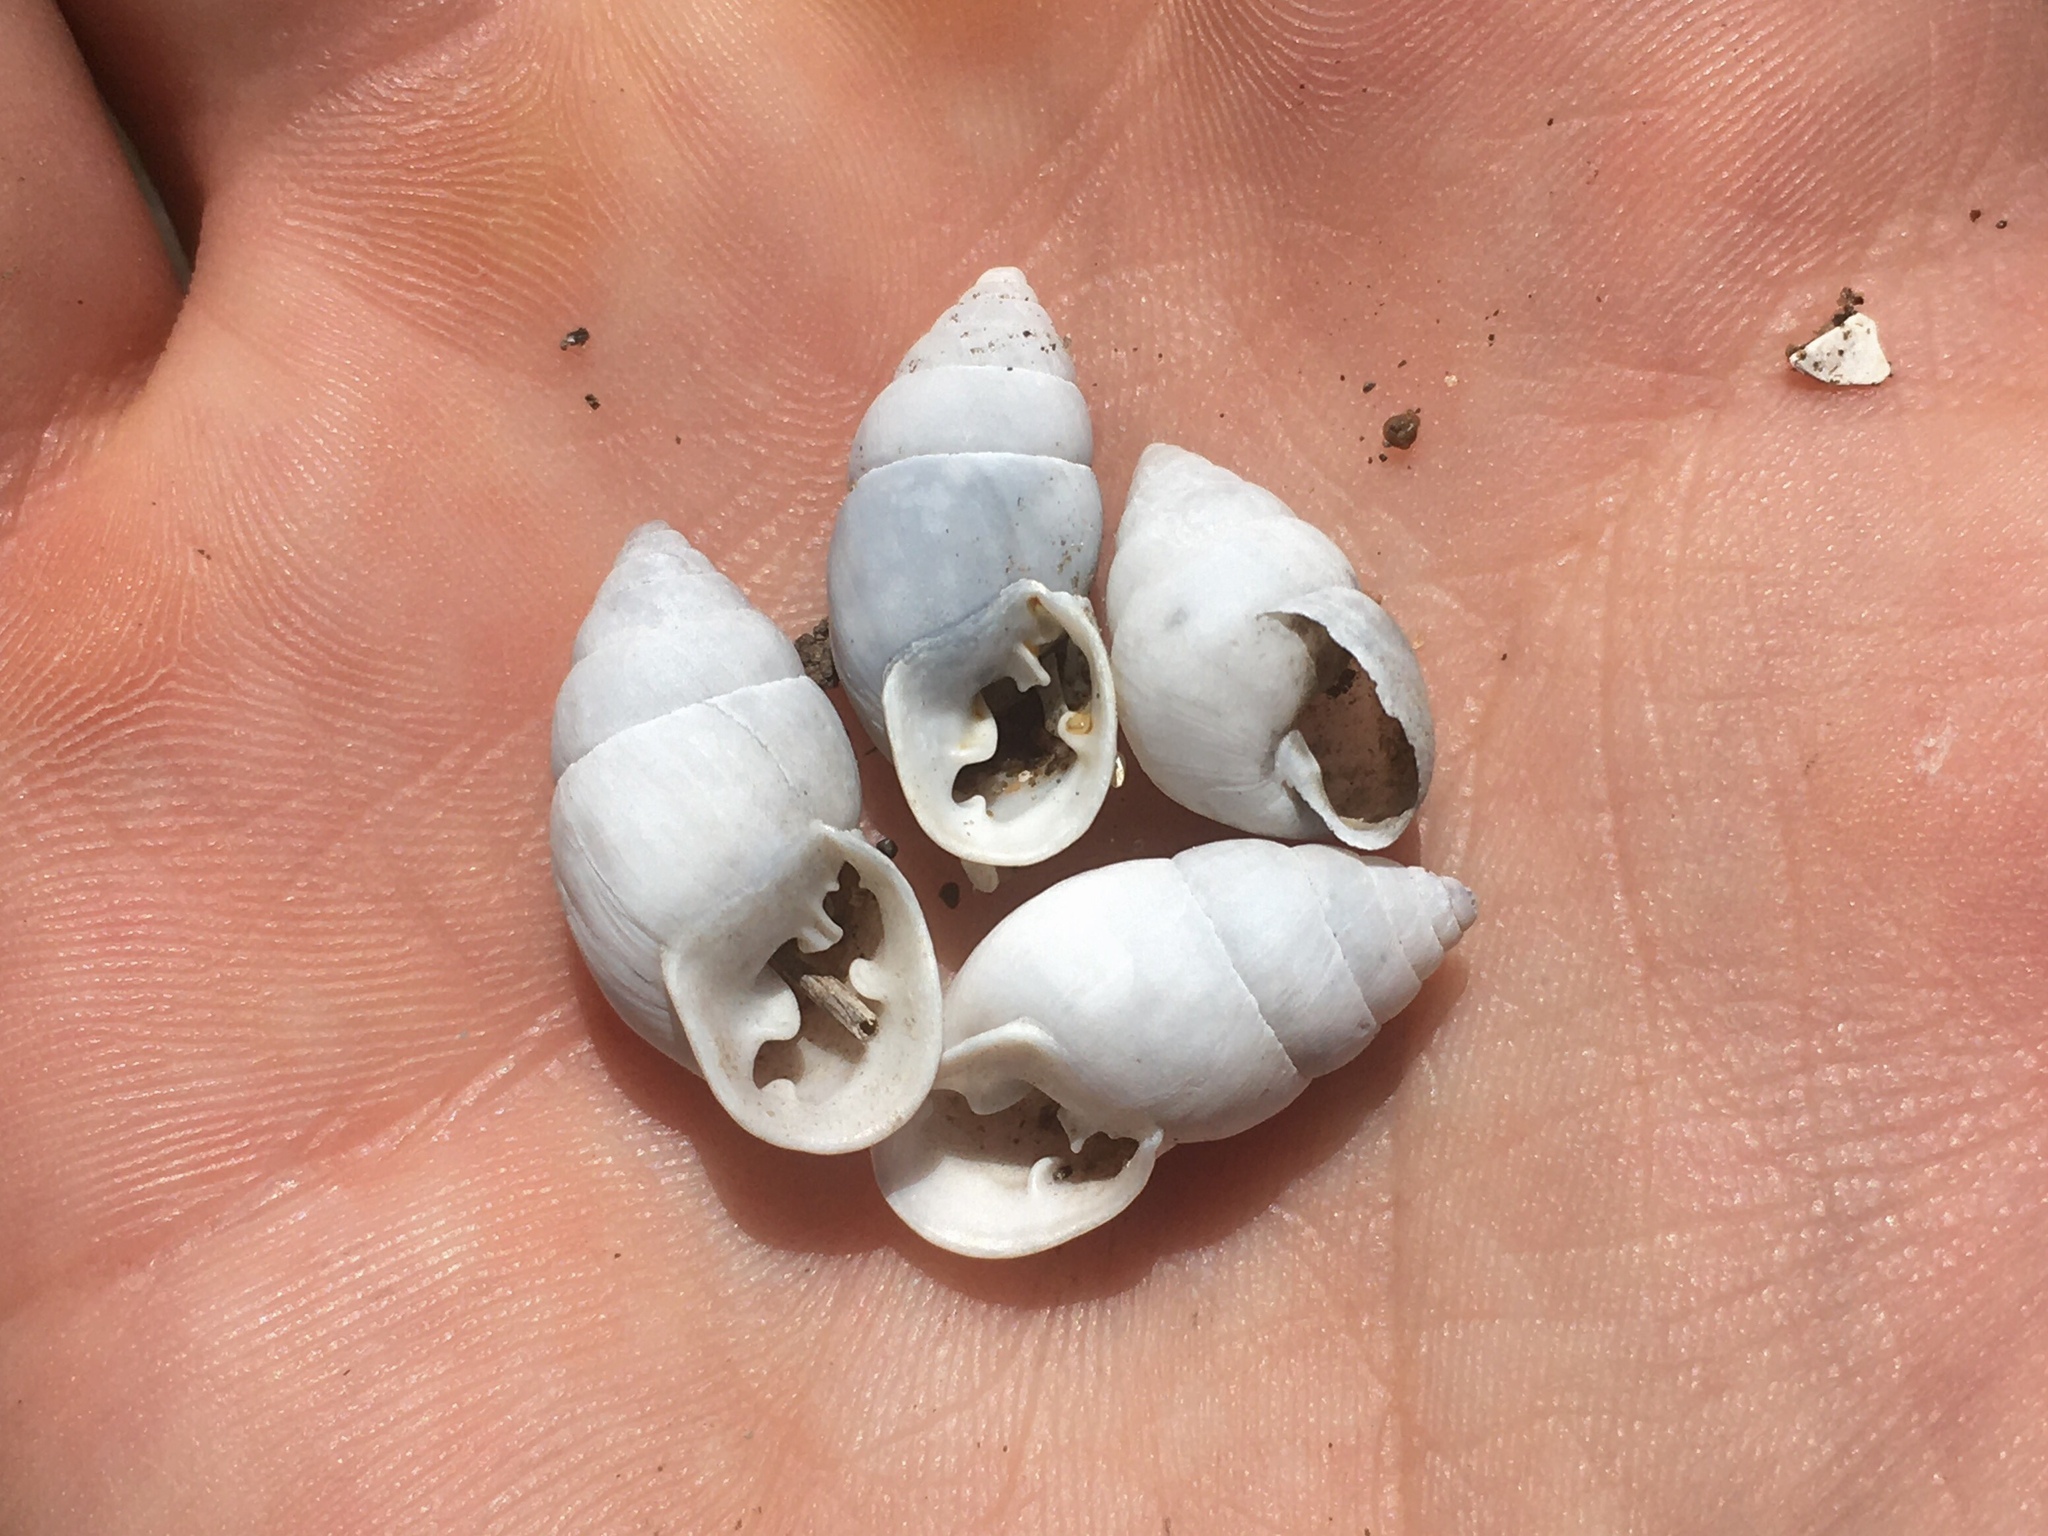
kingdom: Animalia
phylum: Mollusca
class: Gastropoda
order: Stylommatophora
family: Odontostomidae
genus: Plagiodontes
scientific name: Plagiodontes patagonicus
